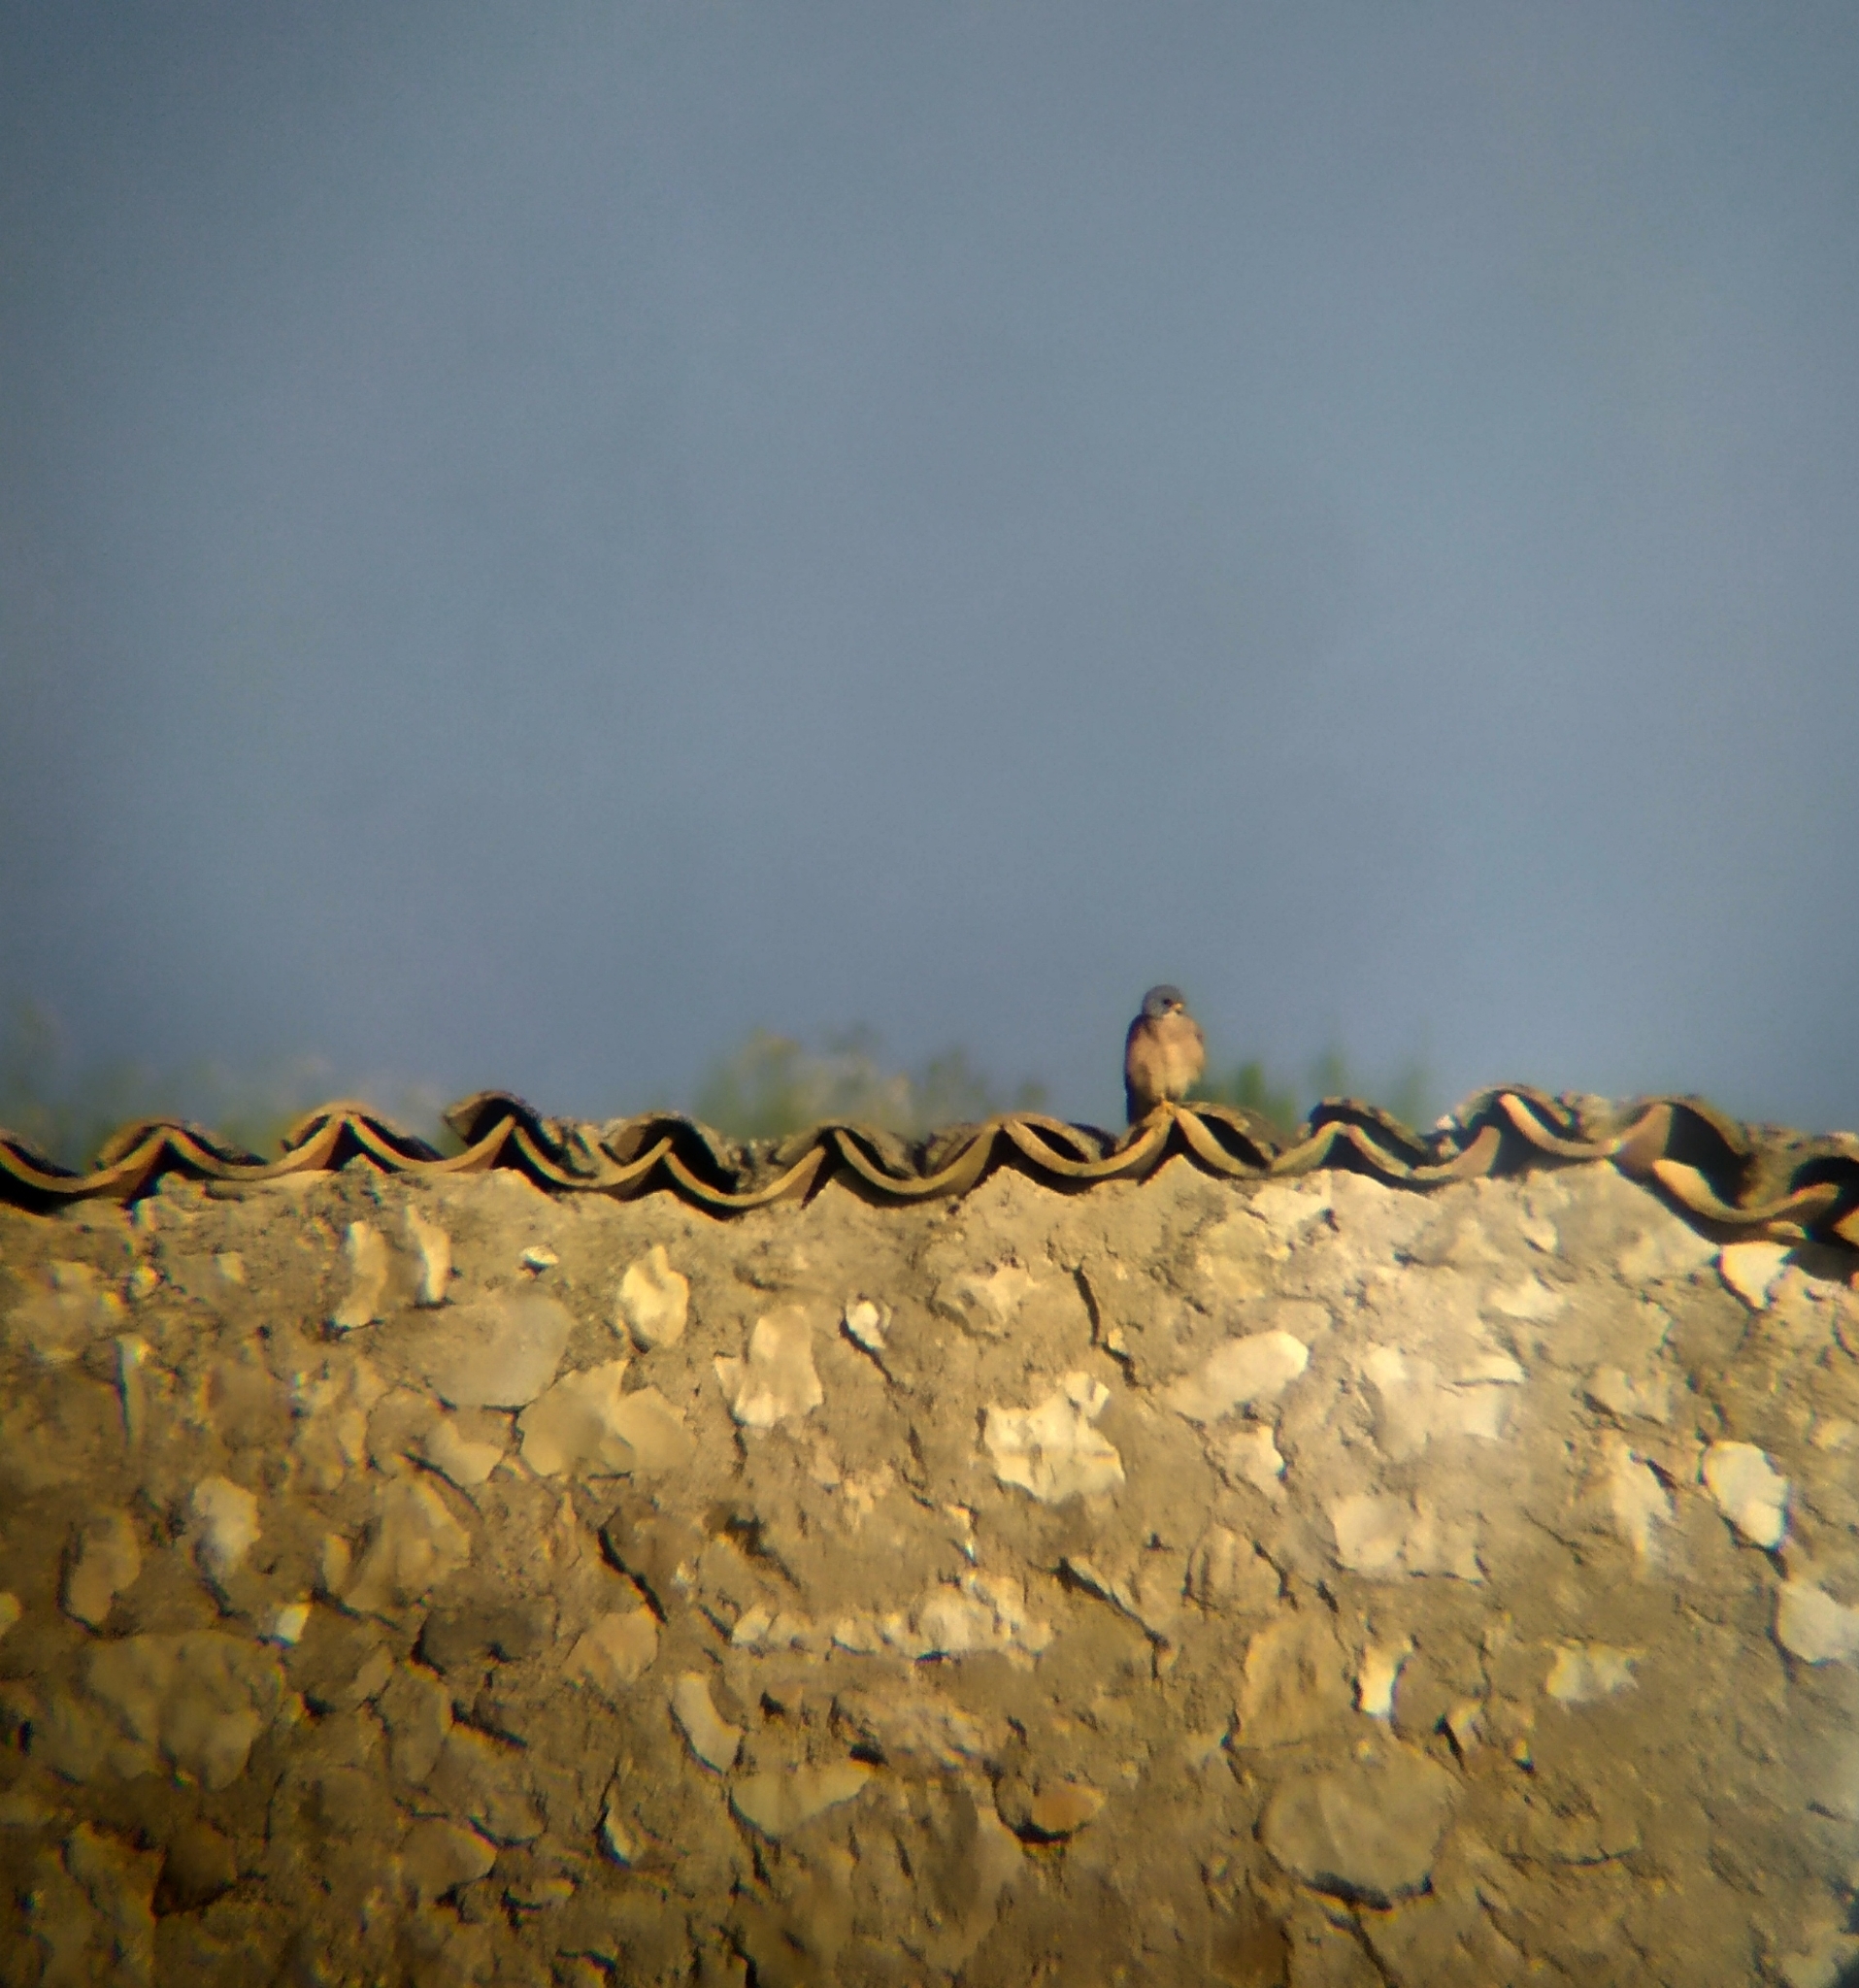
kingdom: Animalia
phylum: Chordata
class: Aves
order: Falconiformes
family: Falconidae
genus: Falco
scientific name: Falco naumanni
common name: Lesser kestrel
